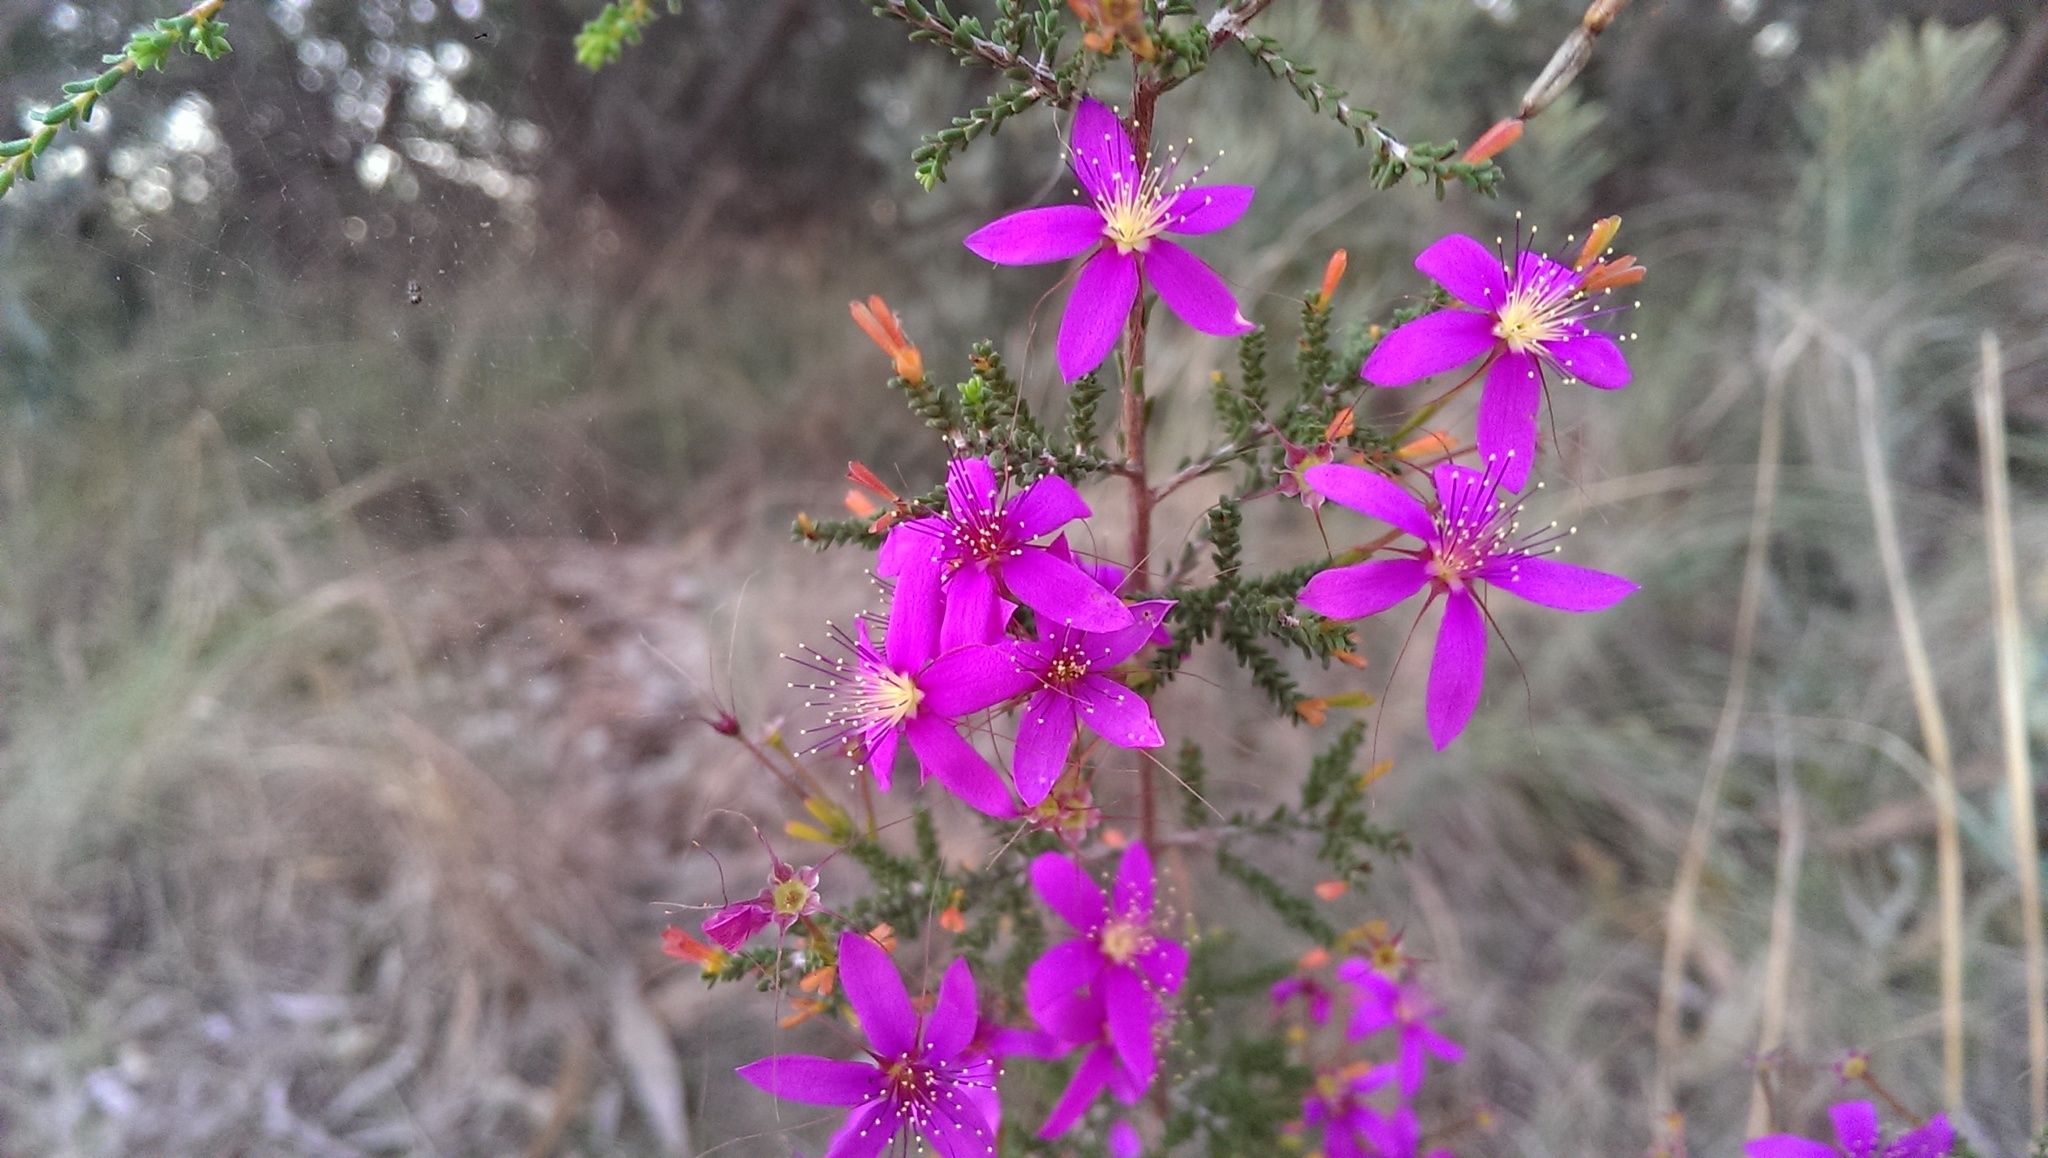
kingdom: Plantae
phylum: Tracheophyta
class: Magnoliopsida
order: Myrtales
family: Myrtaceae
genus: Calytrix
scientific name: Calytrix fraseri
